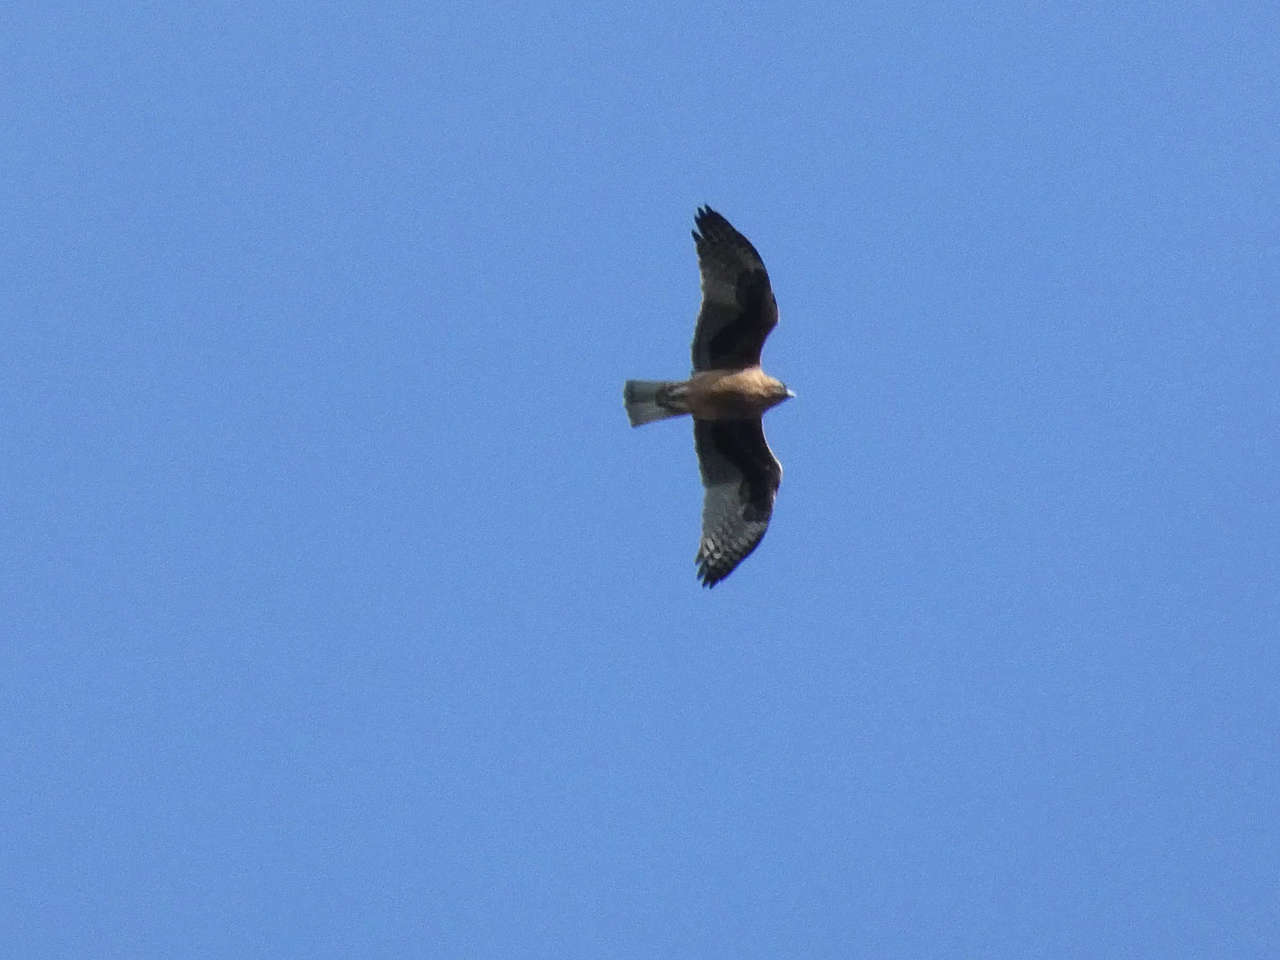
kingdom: Animalia
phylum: Chordata
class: Aves
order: Accipitriformes
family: Accipitridae
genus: Hieraaetus
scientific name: Hieraaetus morphnoides
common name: Little eagle
